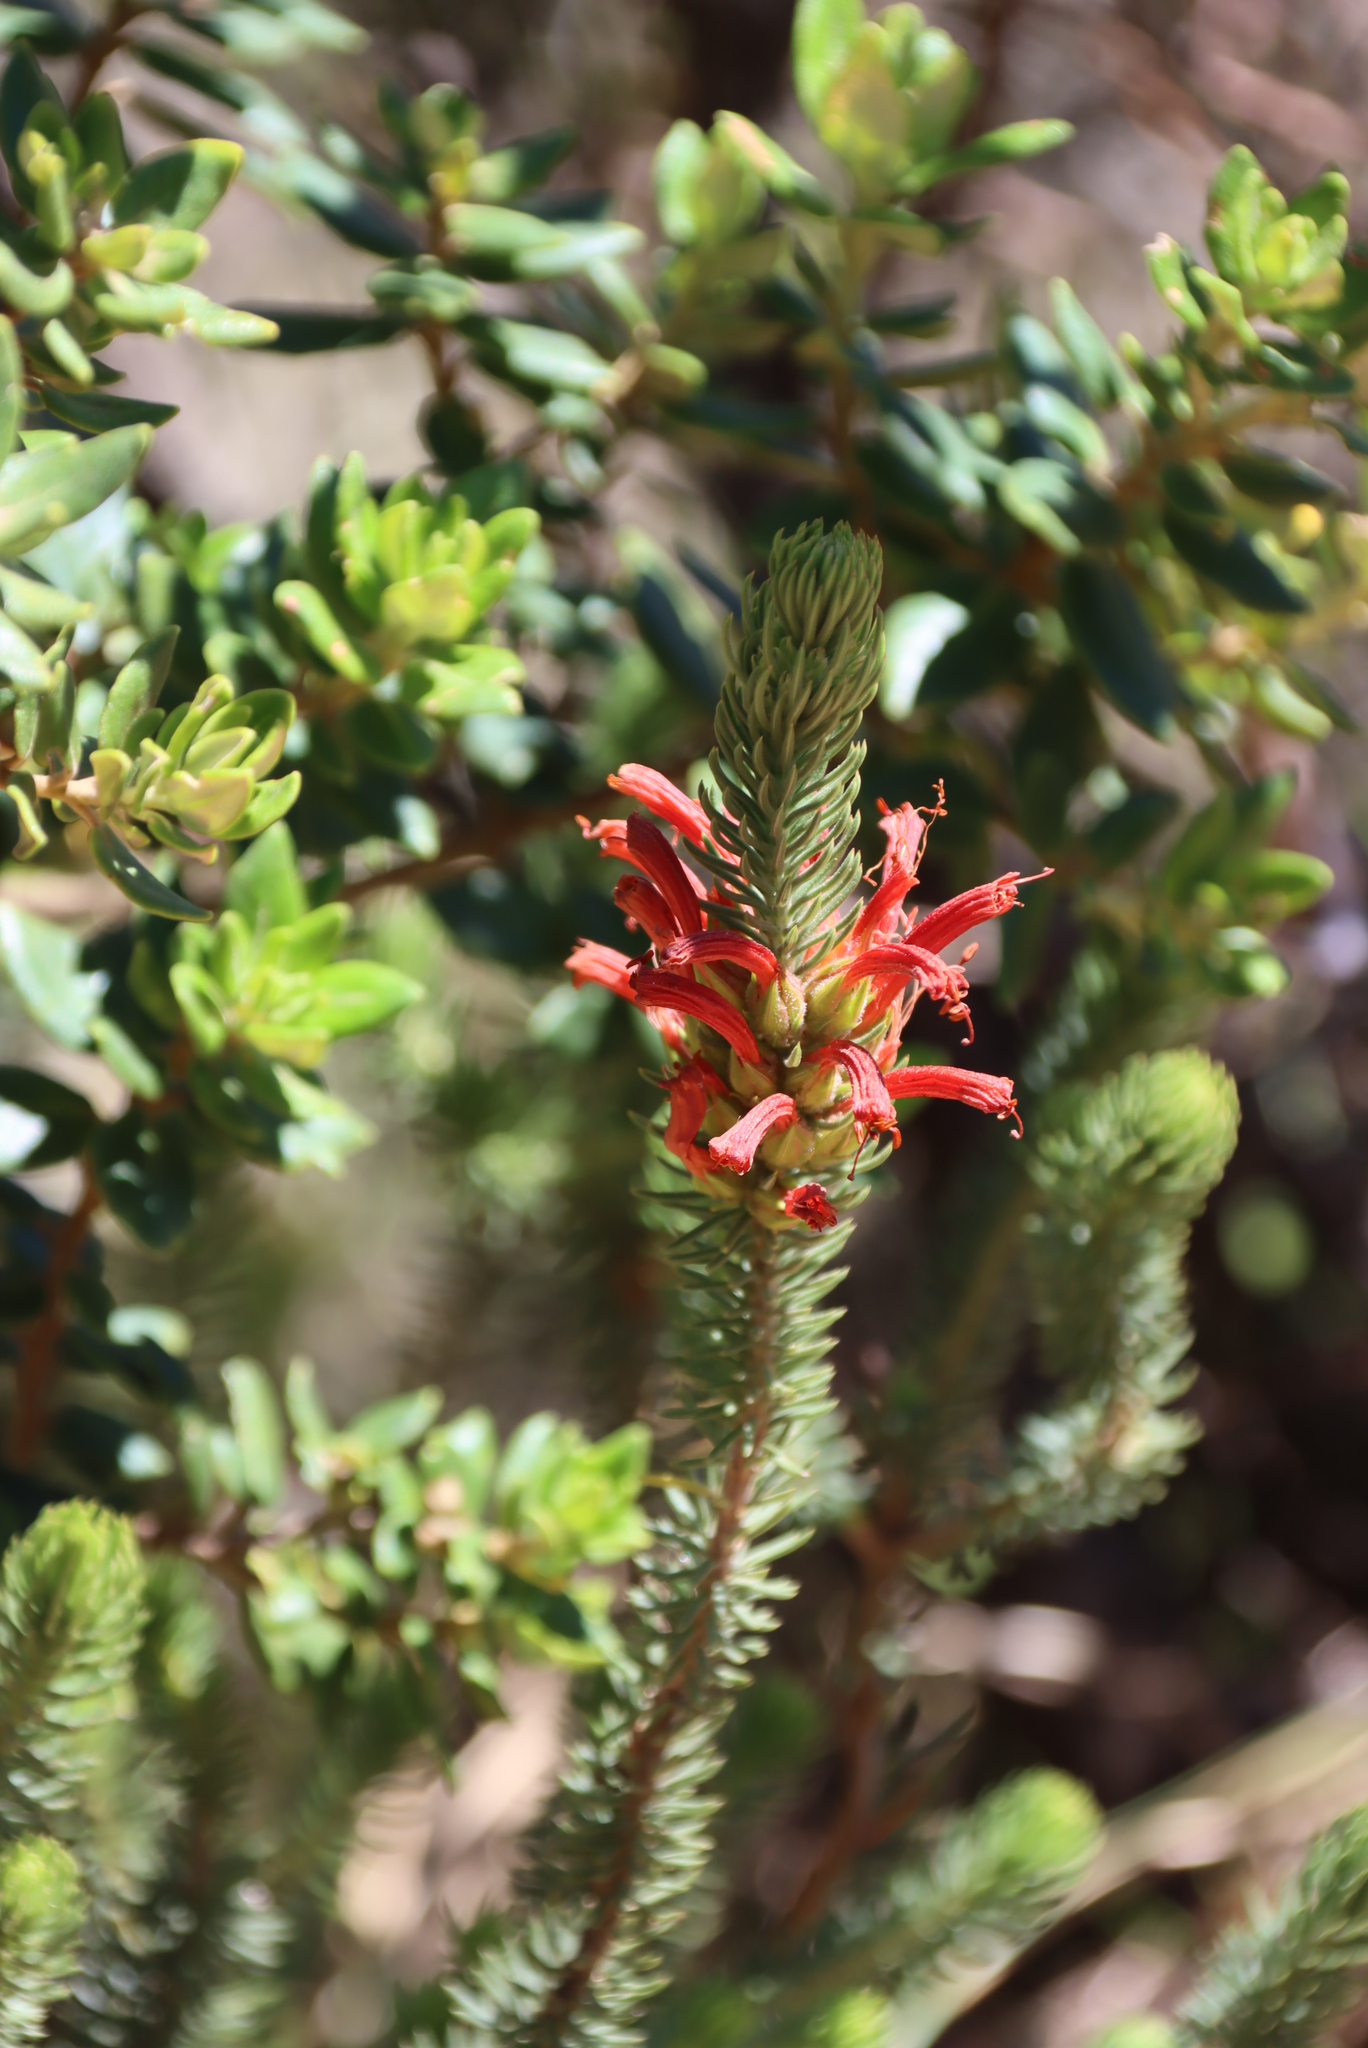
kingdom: Plantae
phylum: Tracheophyta
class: Magnoliopsida
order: Ericales
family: Ericaceae
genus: Erica
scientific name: Erica abietina
